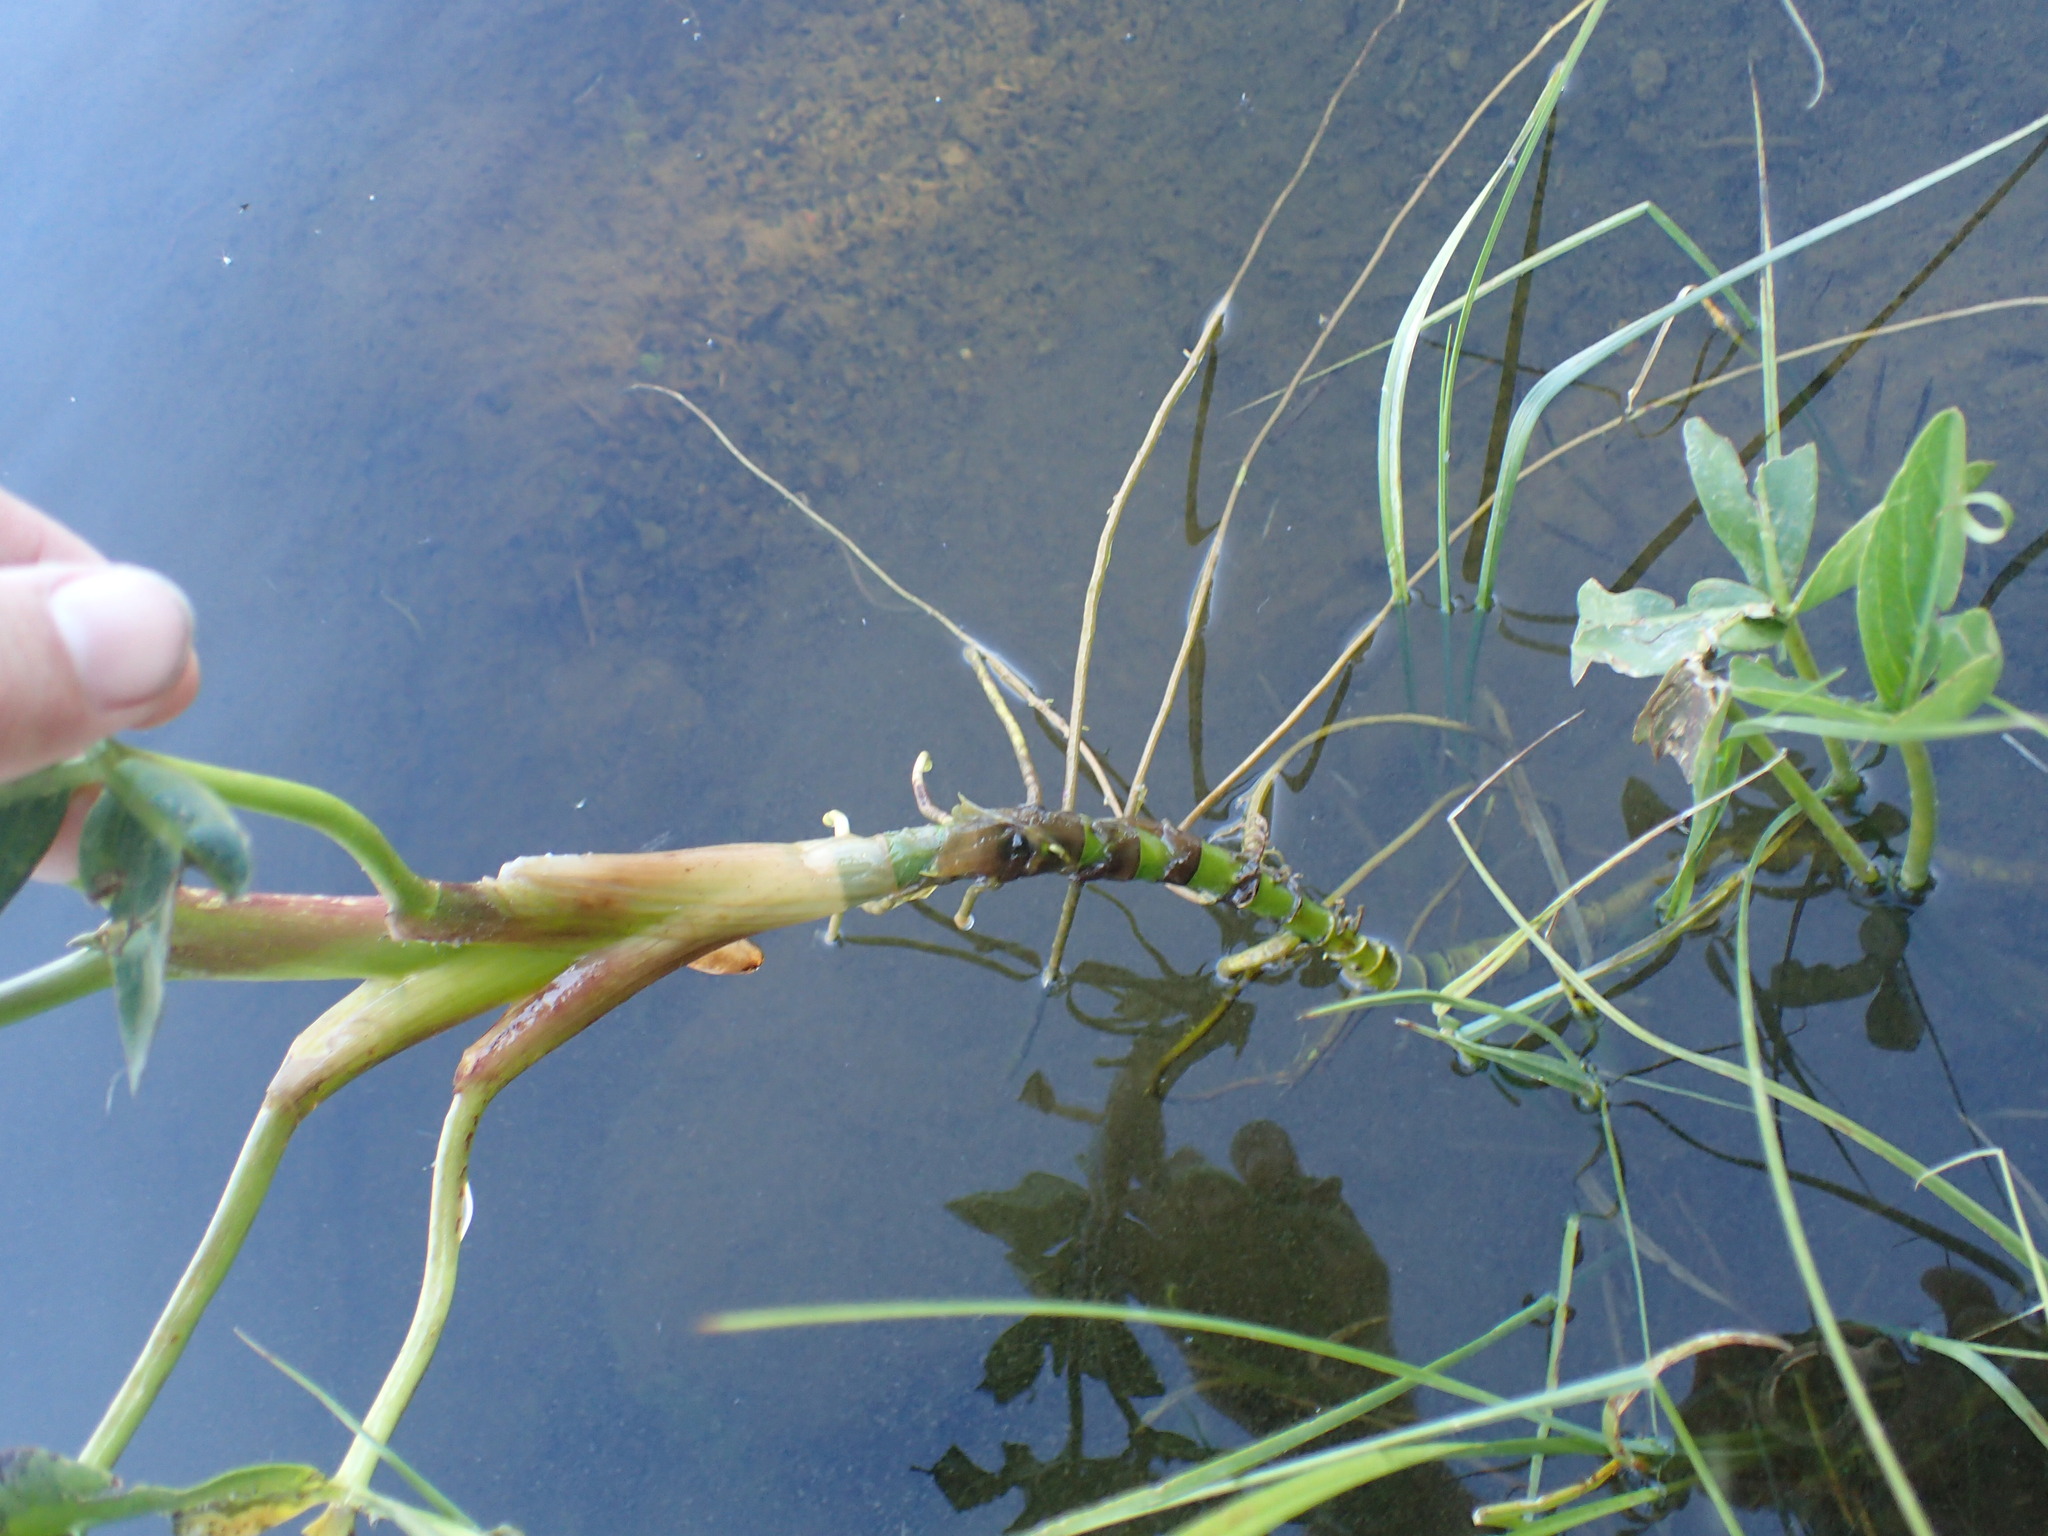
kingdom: Plantae
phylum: Tracheophyta
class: Magnoliopsida
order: Asterales
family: Menyanthaceae
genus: Menyanthes
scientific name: Menyanthes trifoliata
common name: Bogbean
